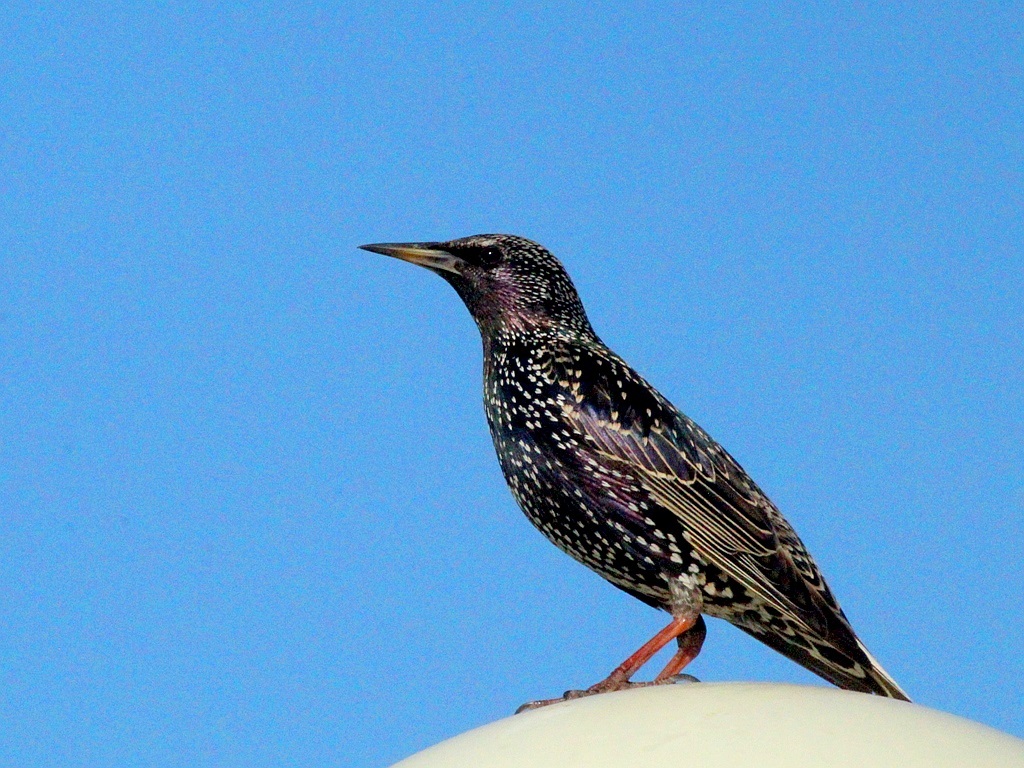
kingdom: Animalia
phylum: Chordata
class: Aves
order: Passeriformes
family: Sturnidae
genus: Sturnus
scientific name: Sturnus vulgaris
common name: Common starling
